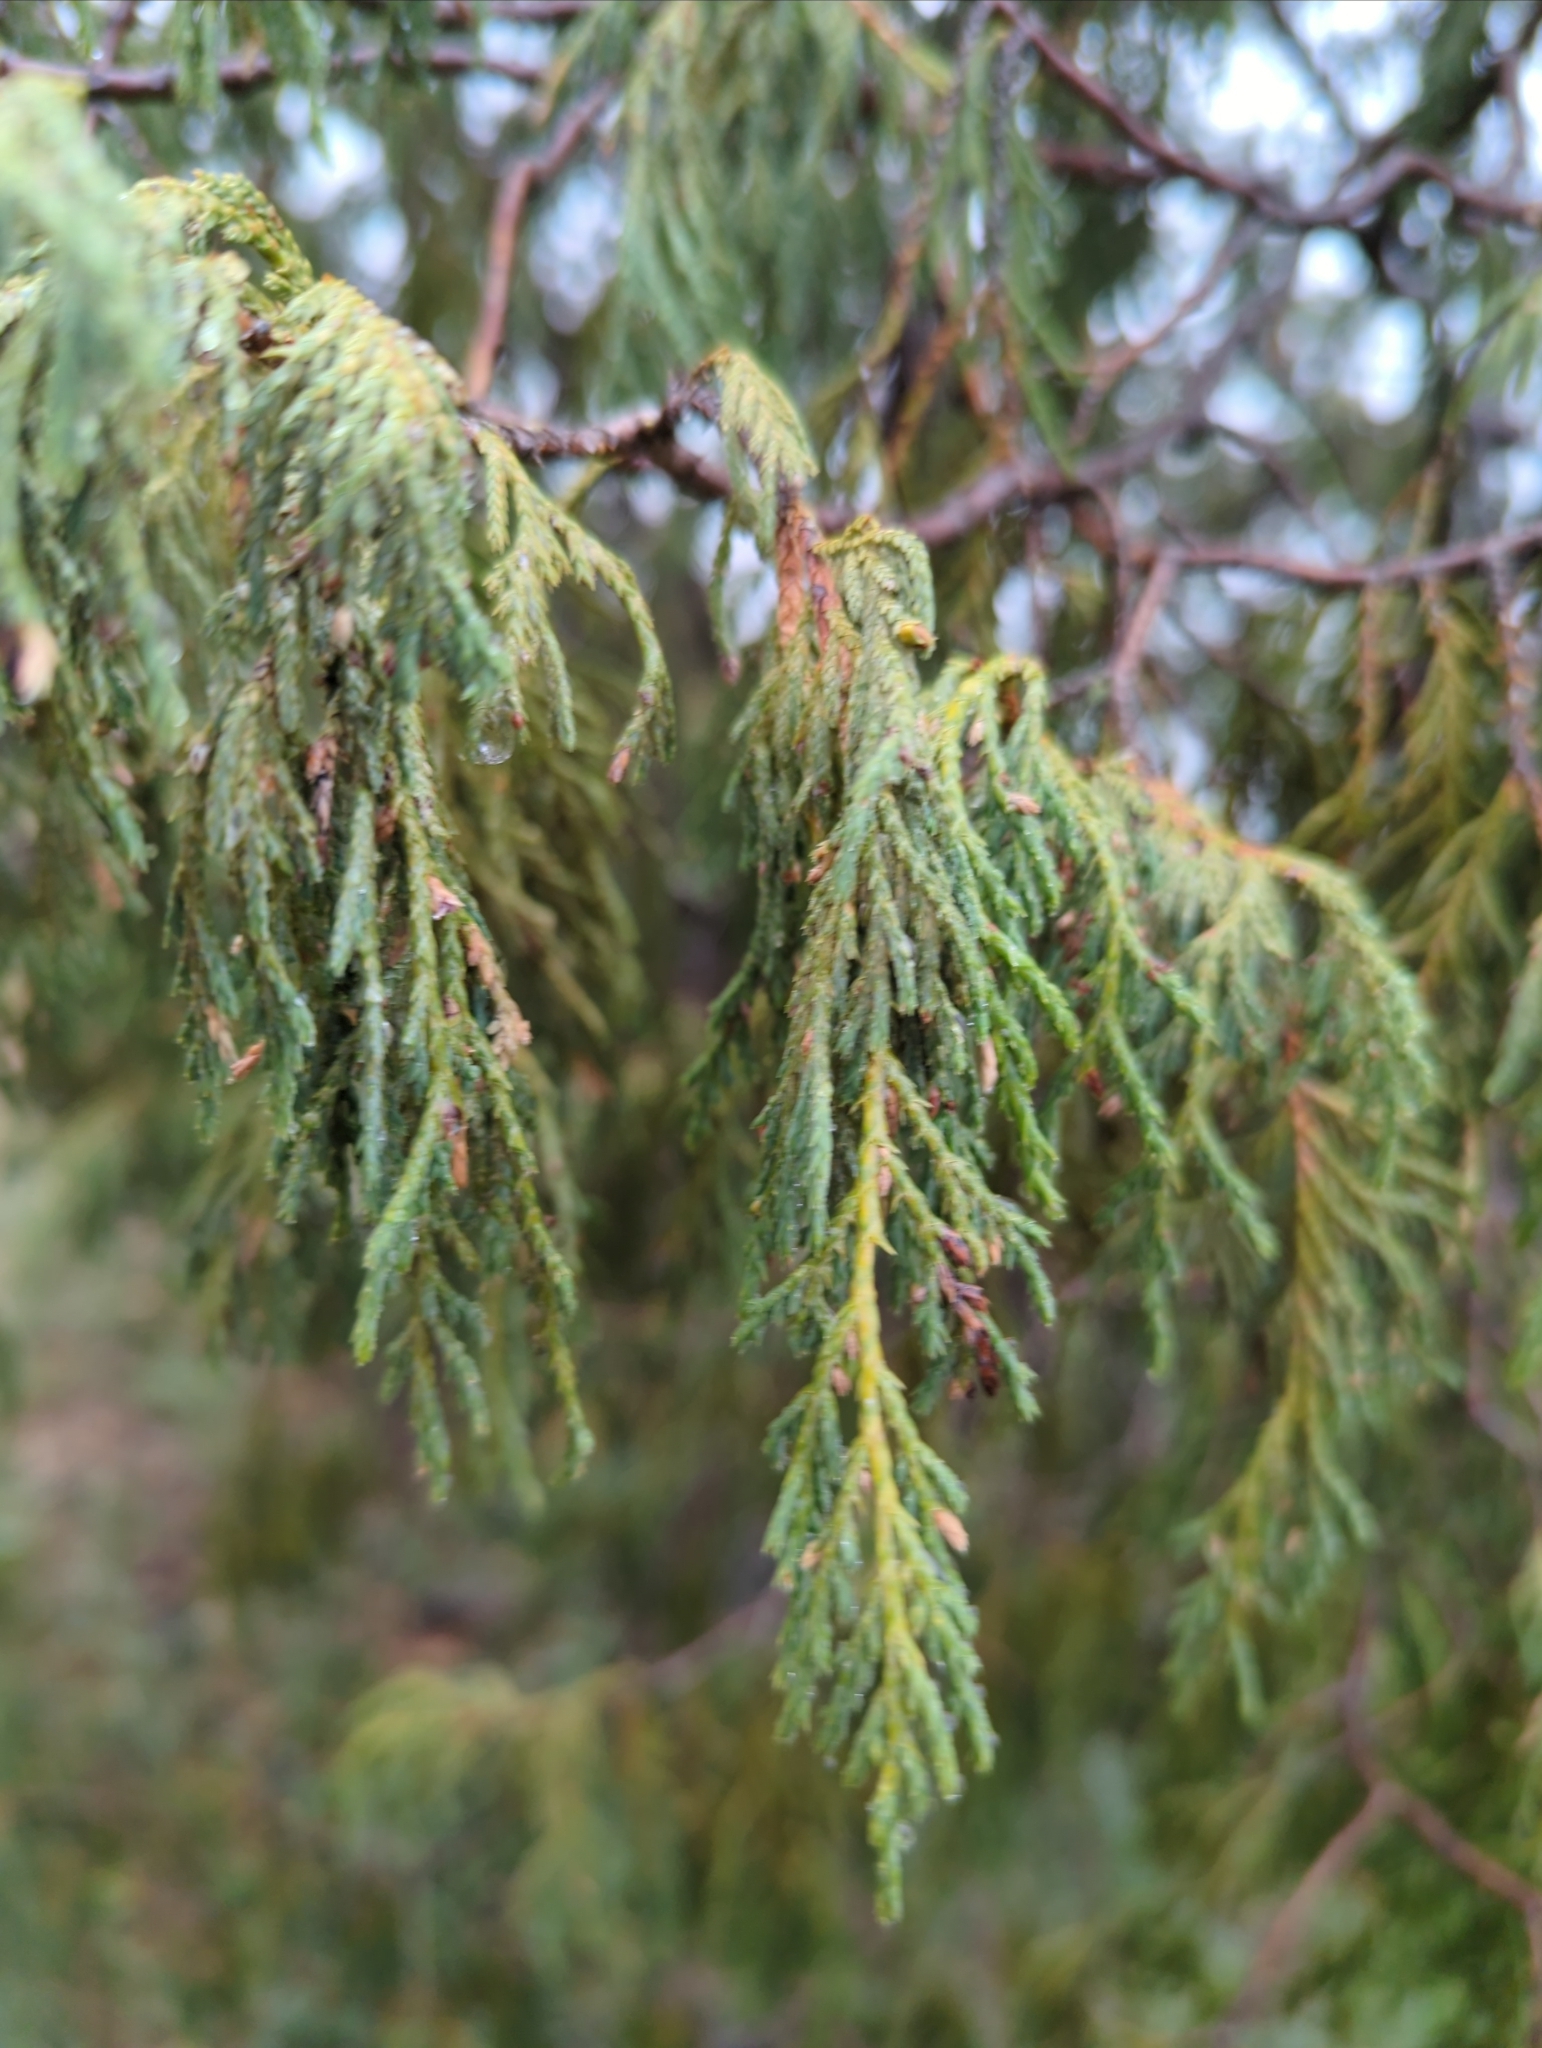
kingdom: Plantae
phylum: Tracheophyta
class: Pinopsida
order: Pinales
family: Cupressaceae
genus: Juniperus
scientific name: Juniperus flaccida
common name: Drooping juniper
